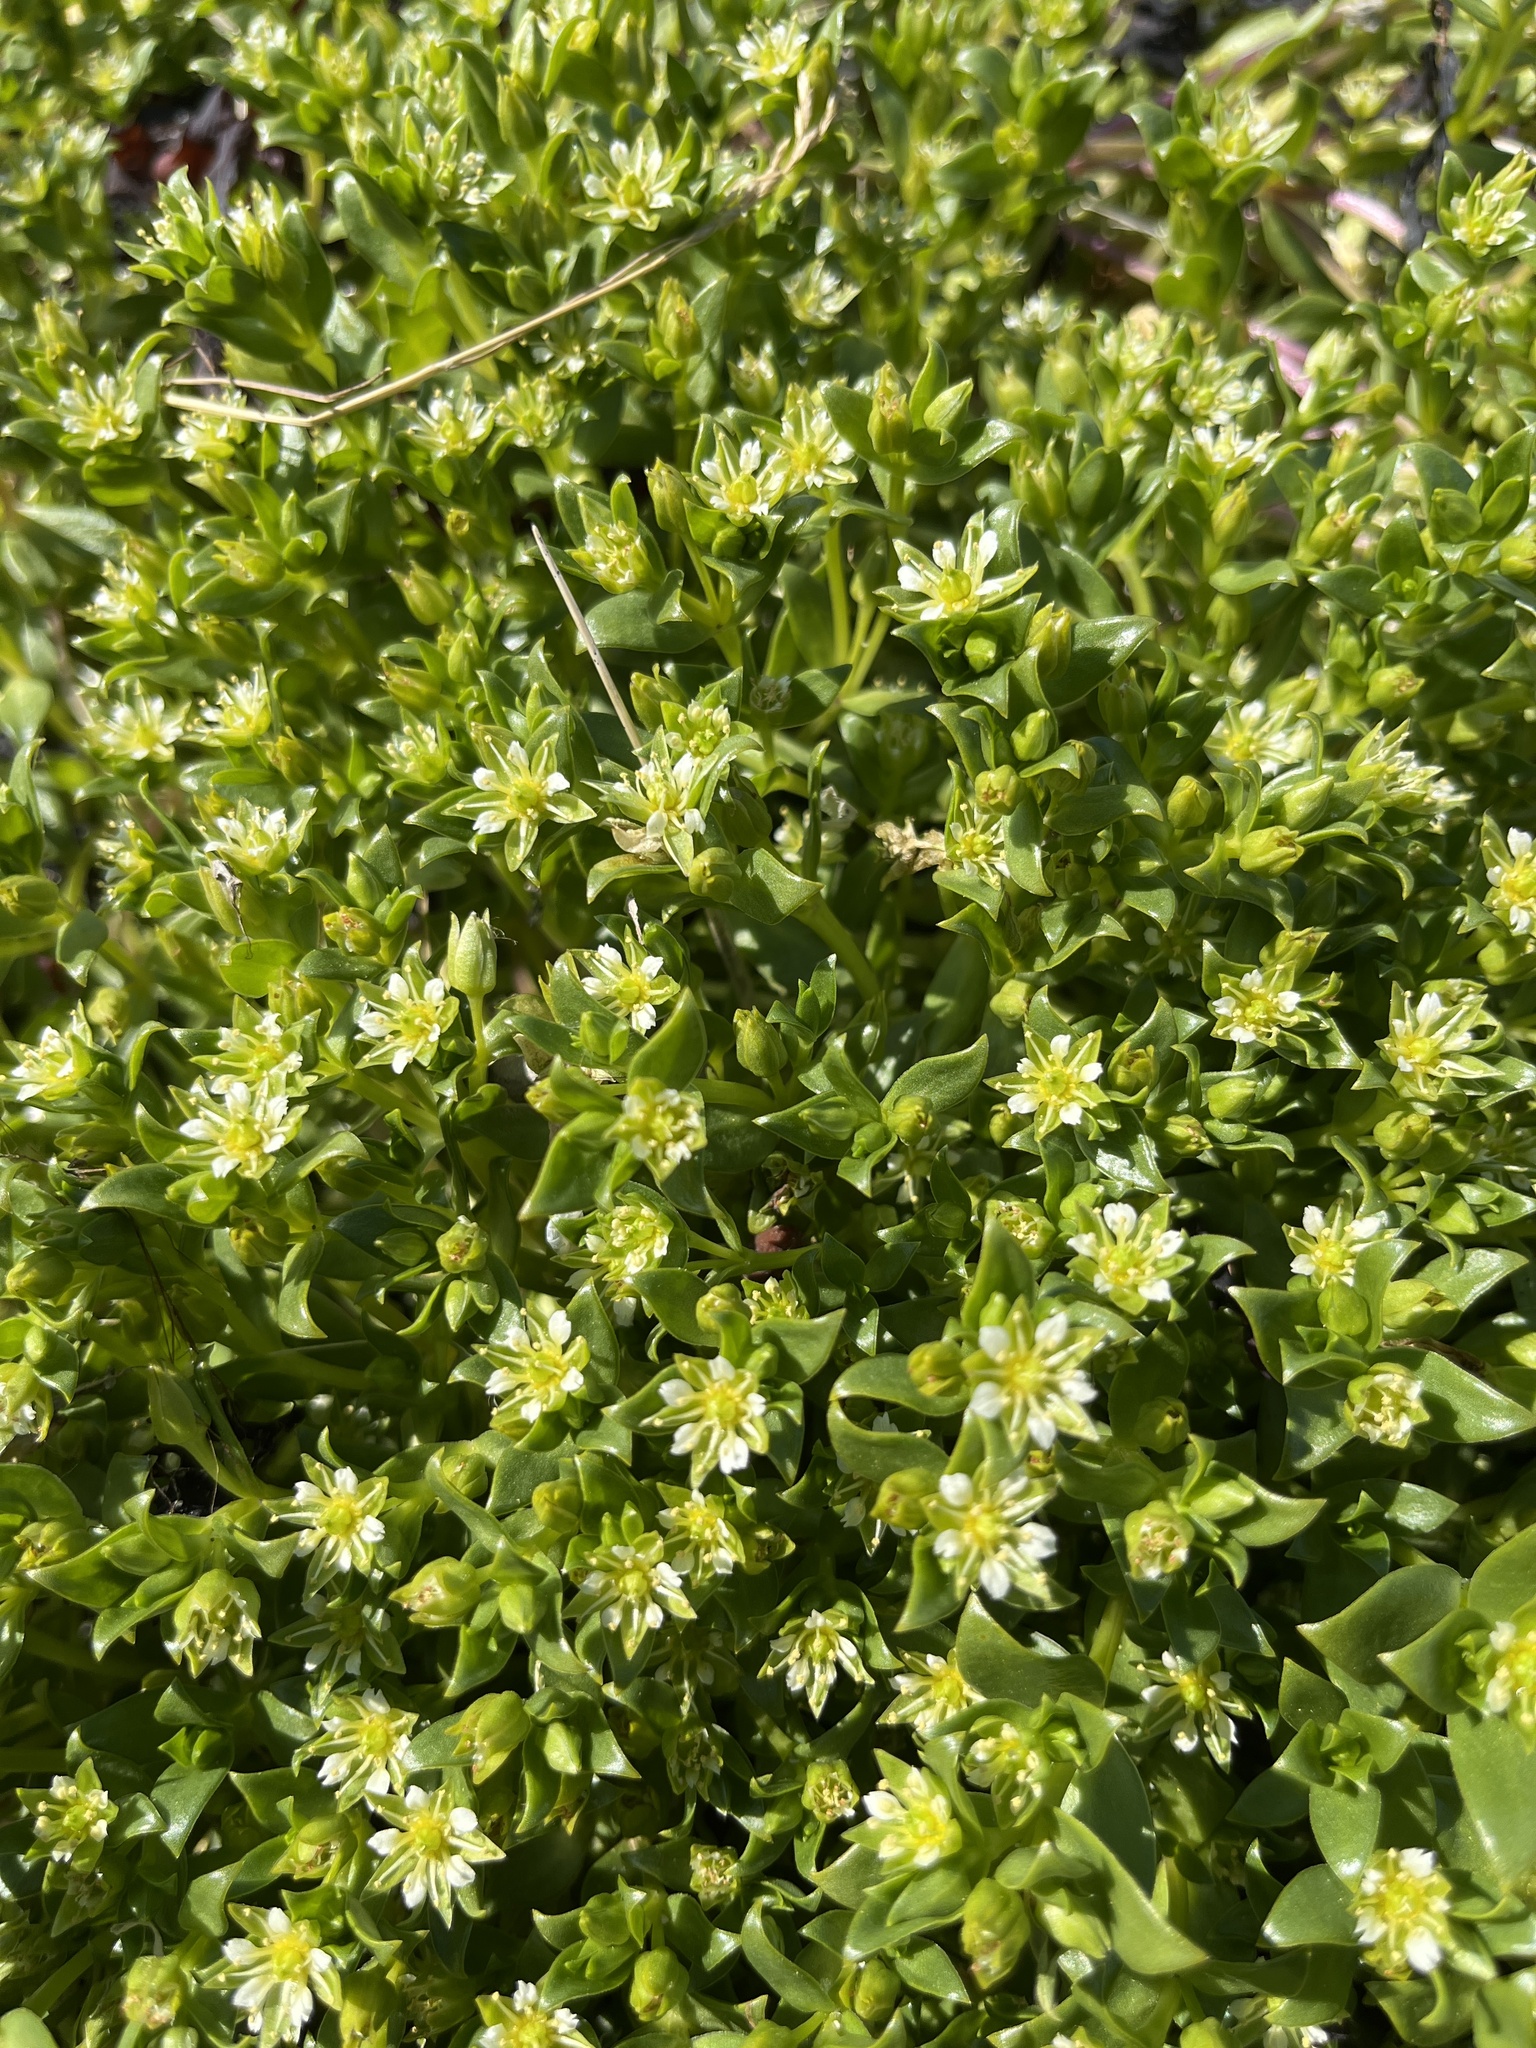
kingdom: Plantae
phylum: Tracheophyta
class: Magnoliopsida
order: Caryophyllales
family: Caryophyllaceae
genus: Honckenya
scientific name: Honckenya peploides
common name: Sea sandwort
